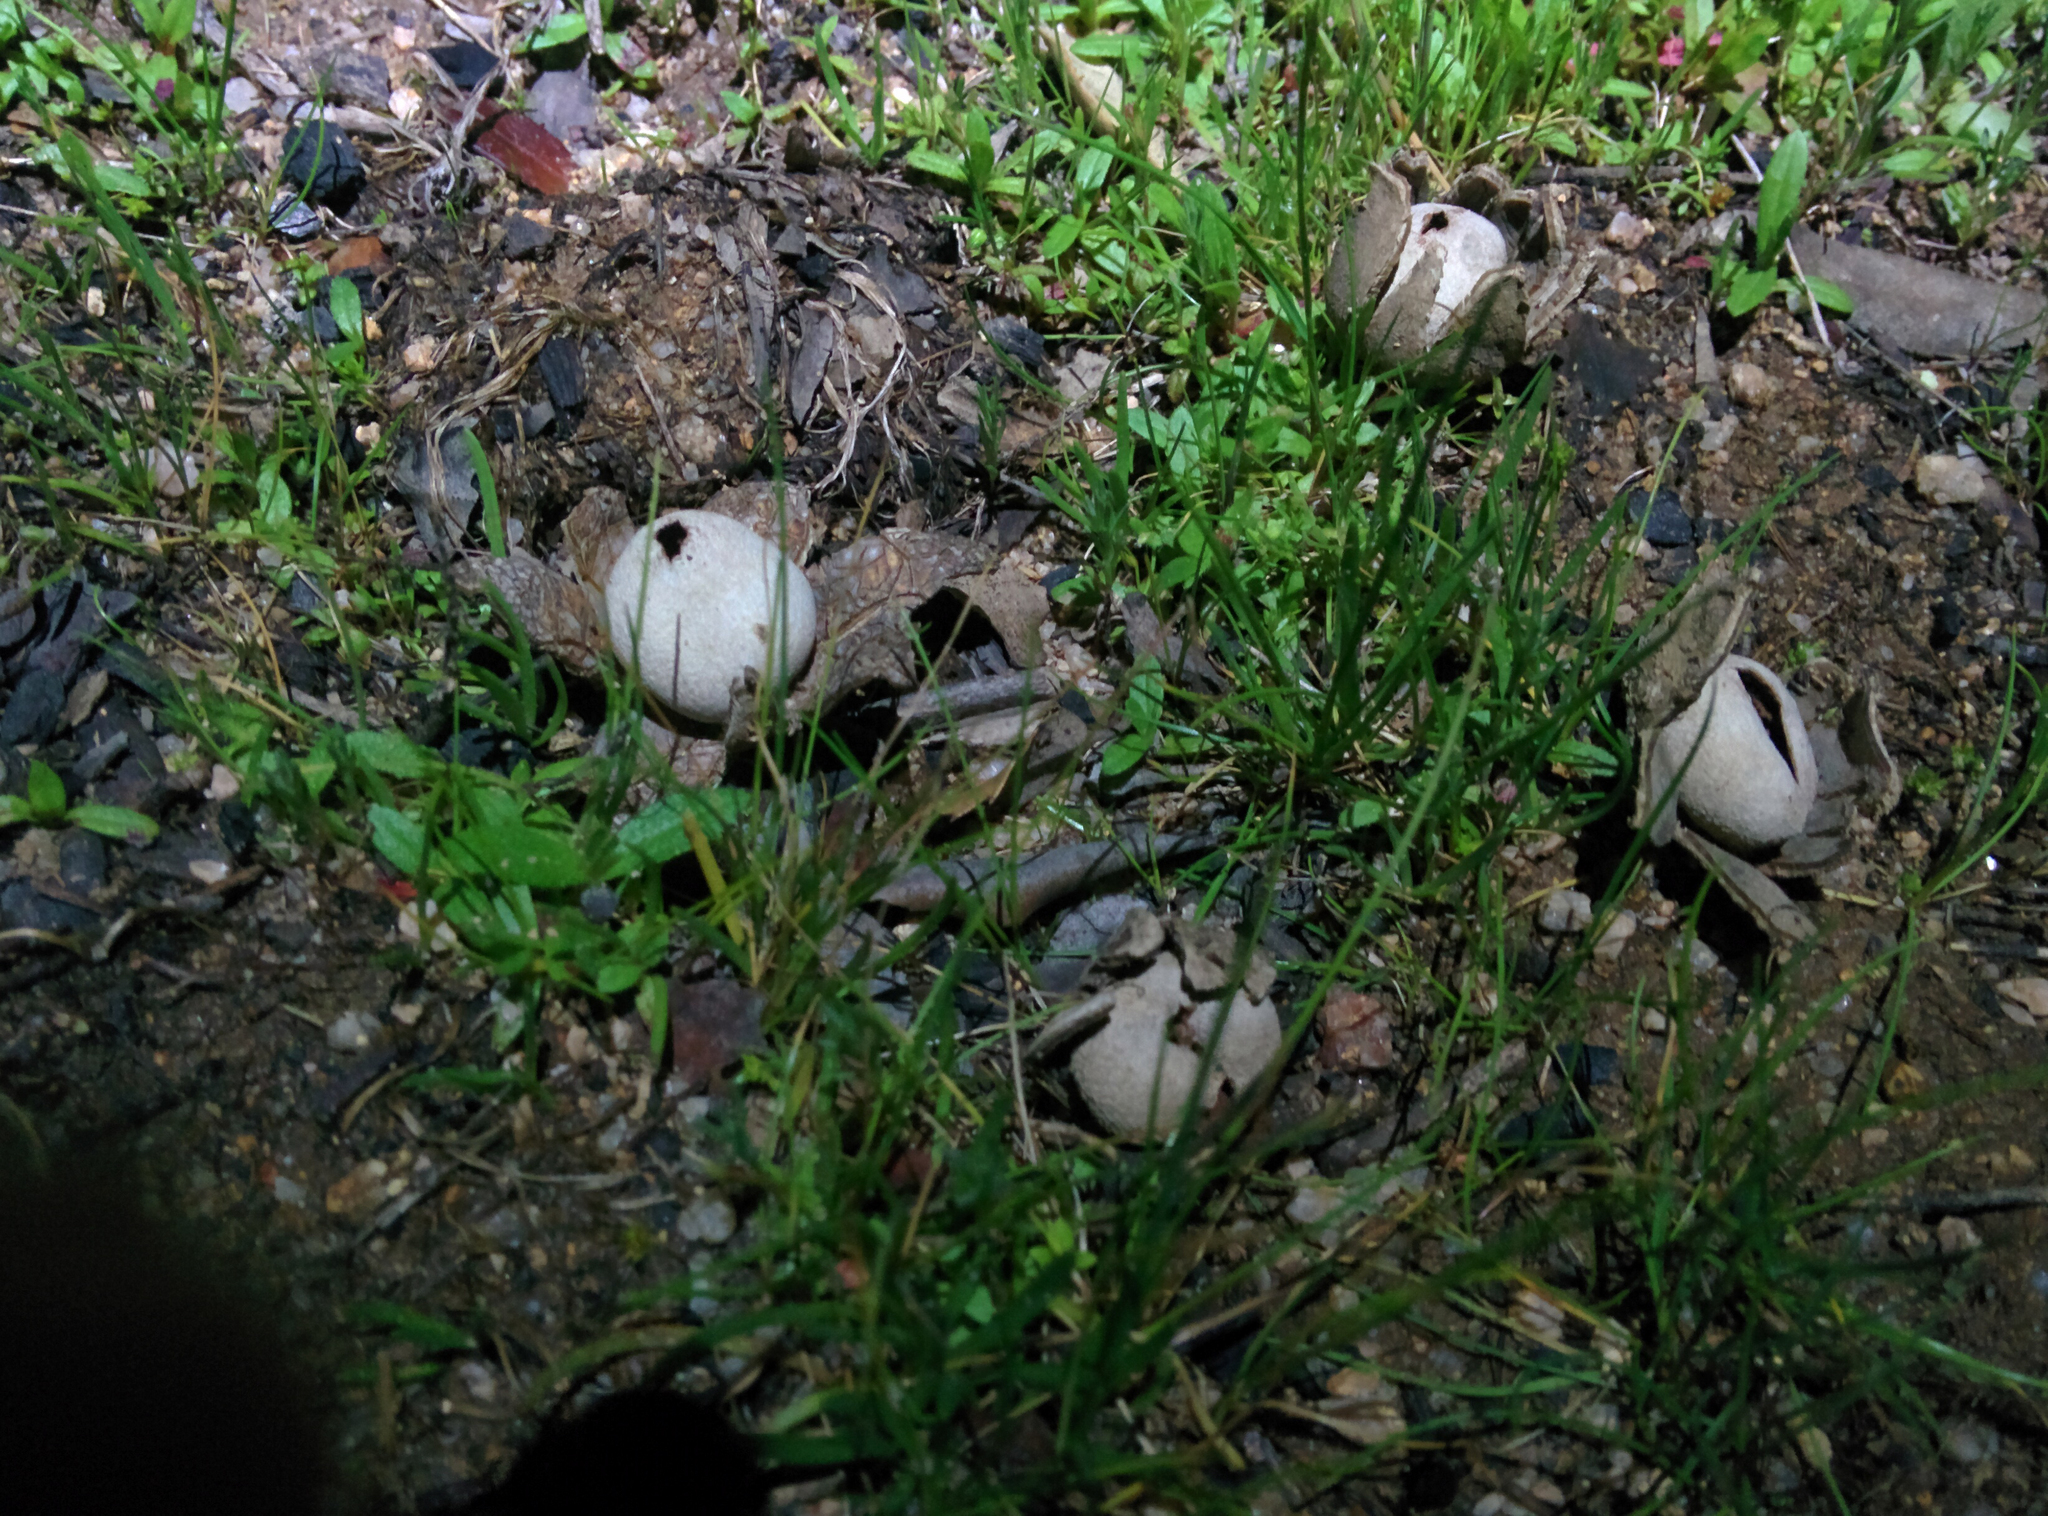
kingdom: Fungi
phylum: Basidiomycota
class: Agaricomycetes
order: Boletales
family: Diplocystidiaceae
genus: Astraeus
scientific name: Astraeus hygrometricus
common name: Barometer earthstar
